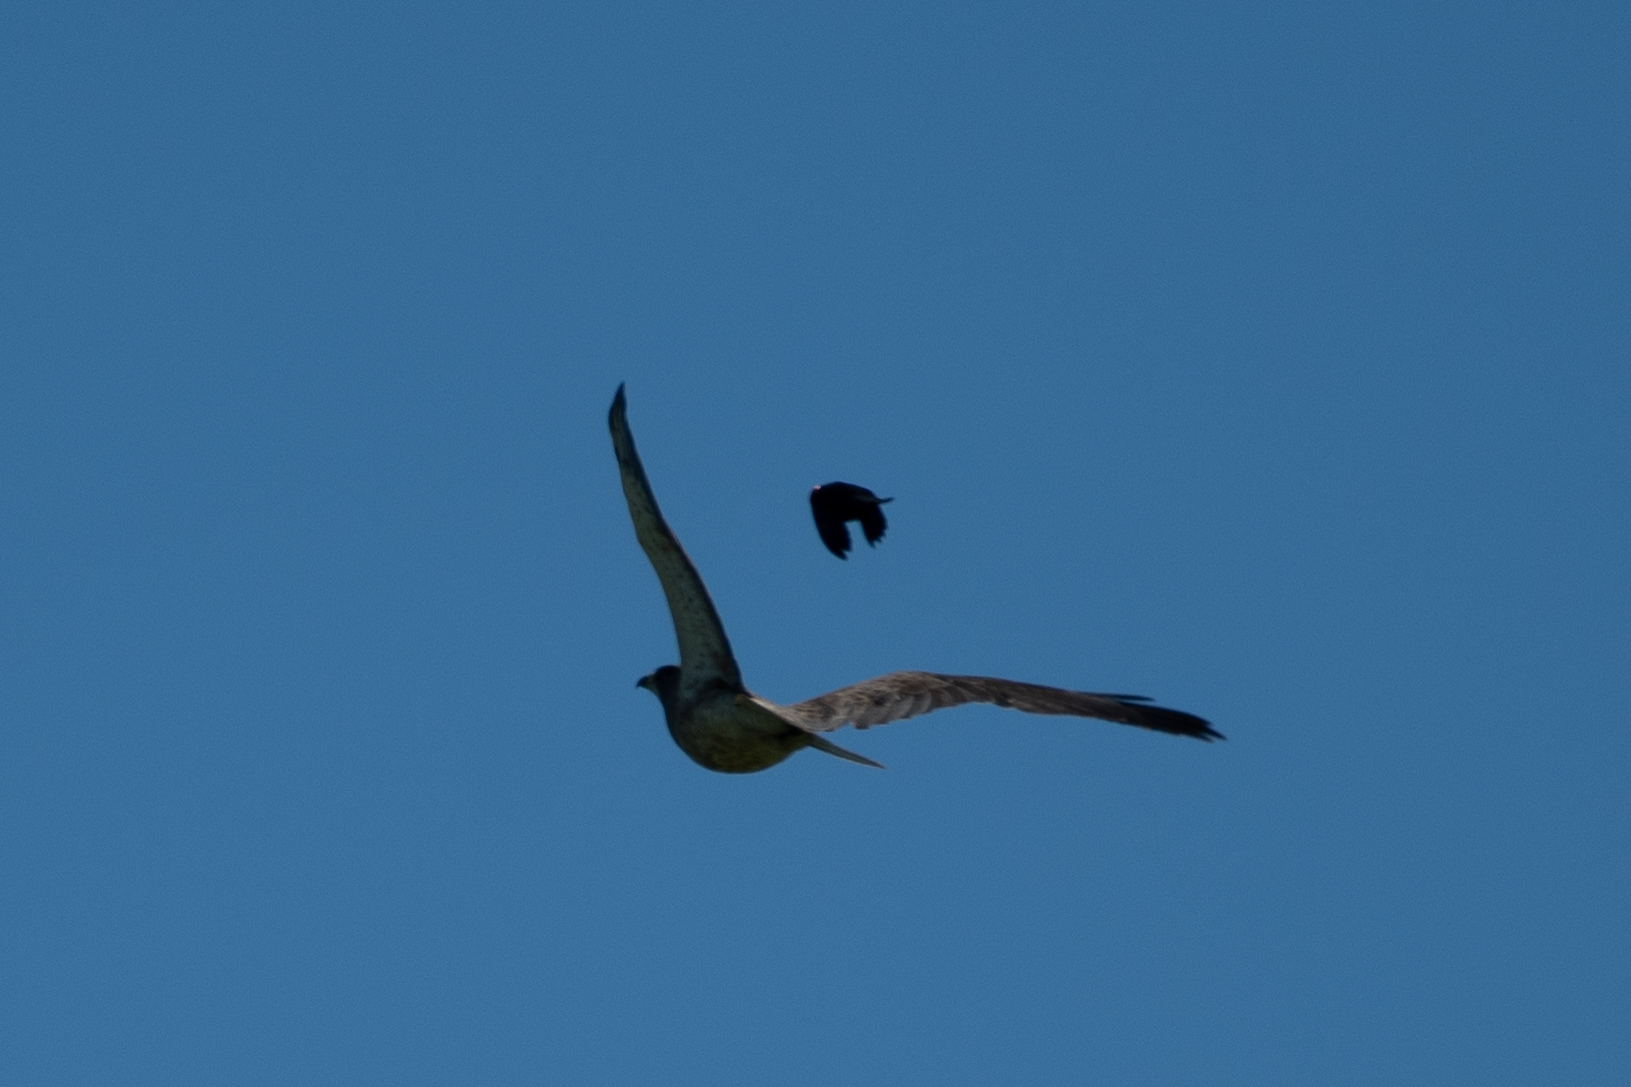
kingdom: Animalia
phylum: Chordata
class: Aves
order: Accipitriformes
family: Accipitridae
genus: Buteo
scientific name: Buteo swainsoni
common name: Swainson's hawk
